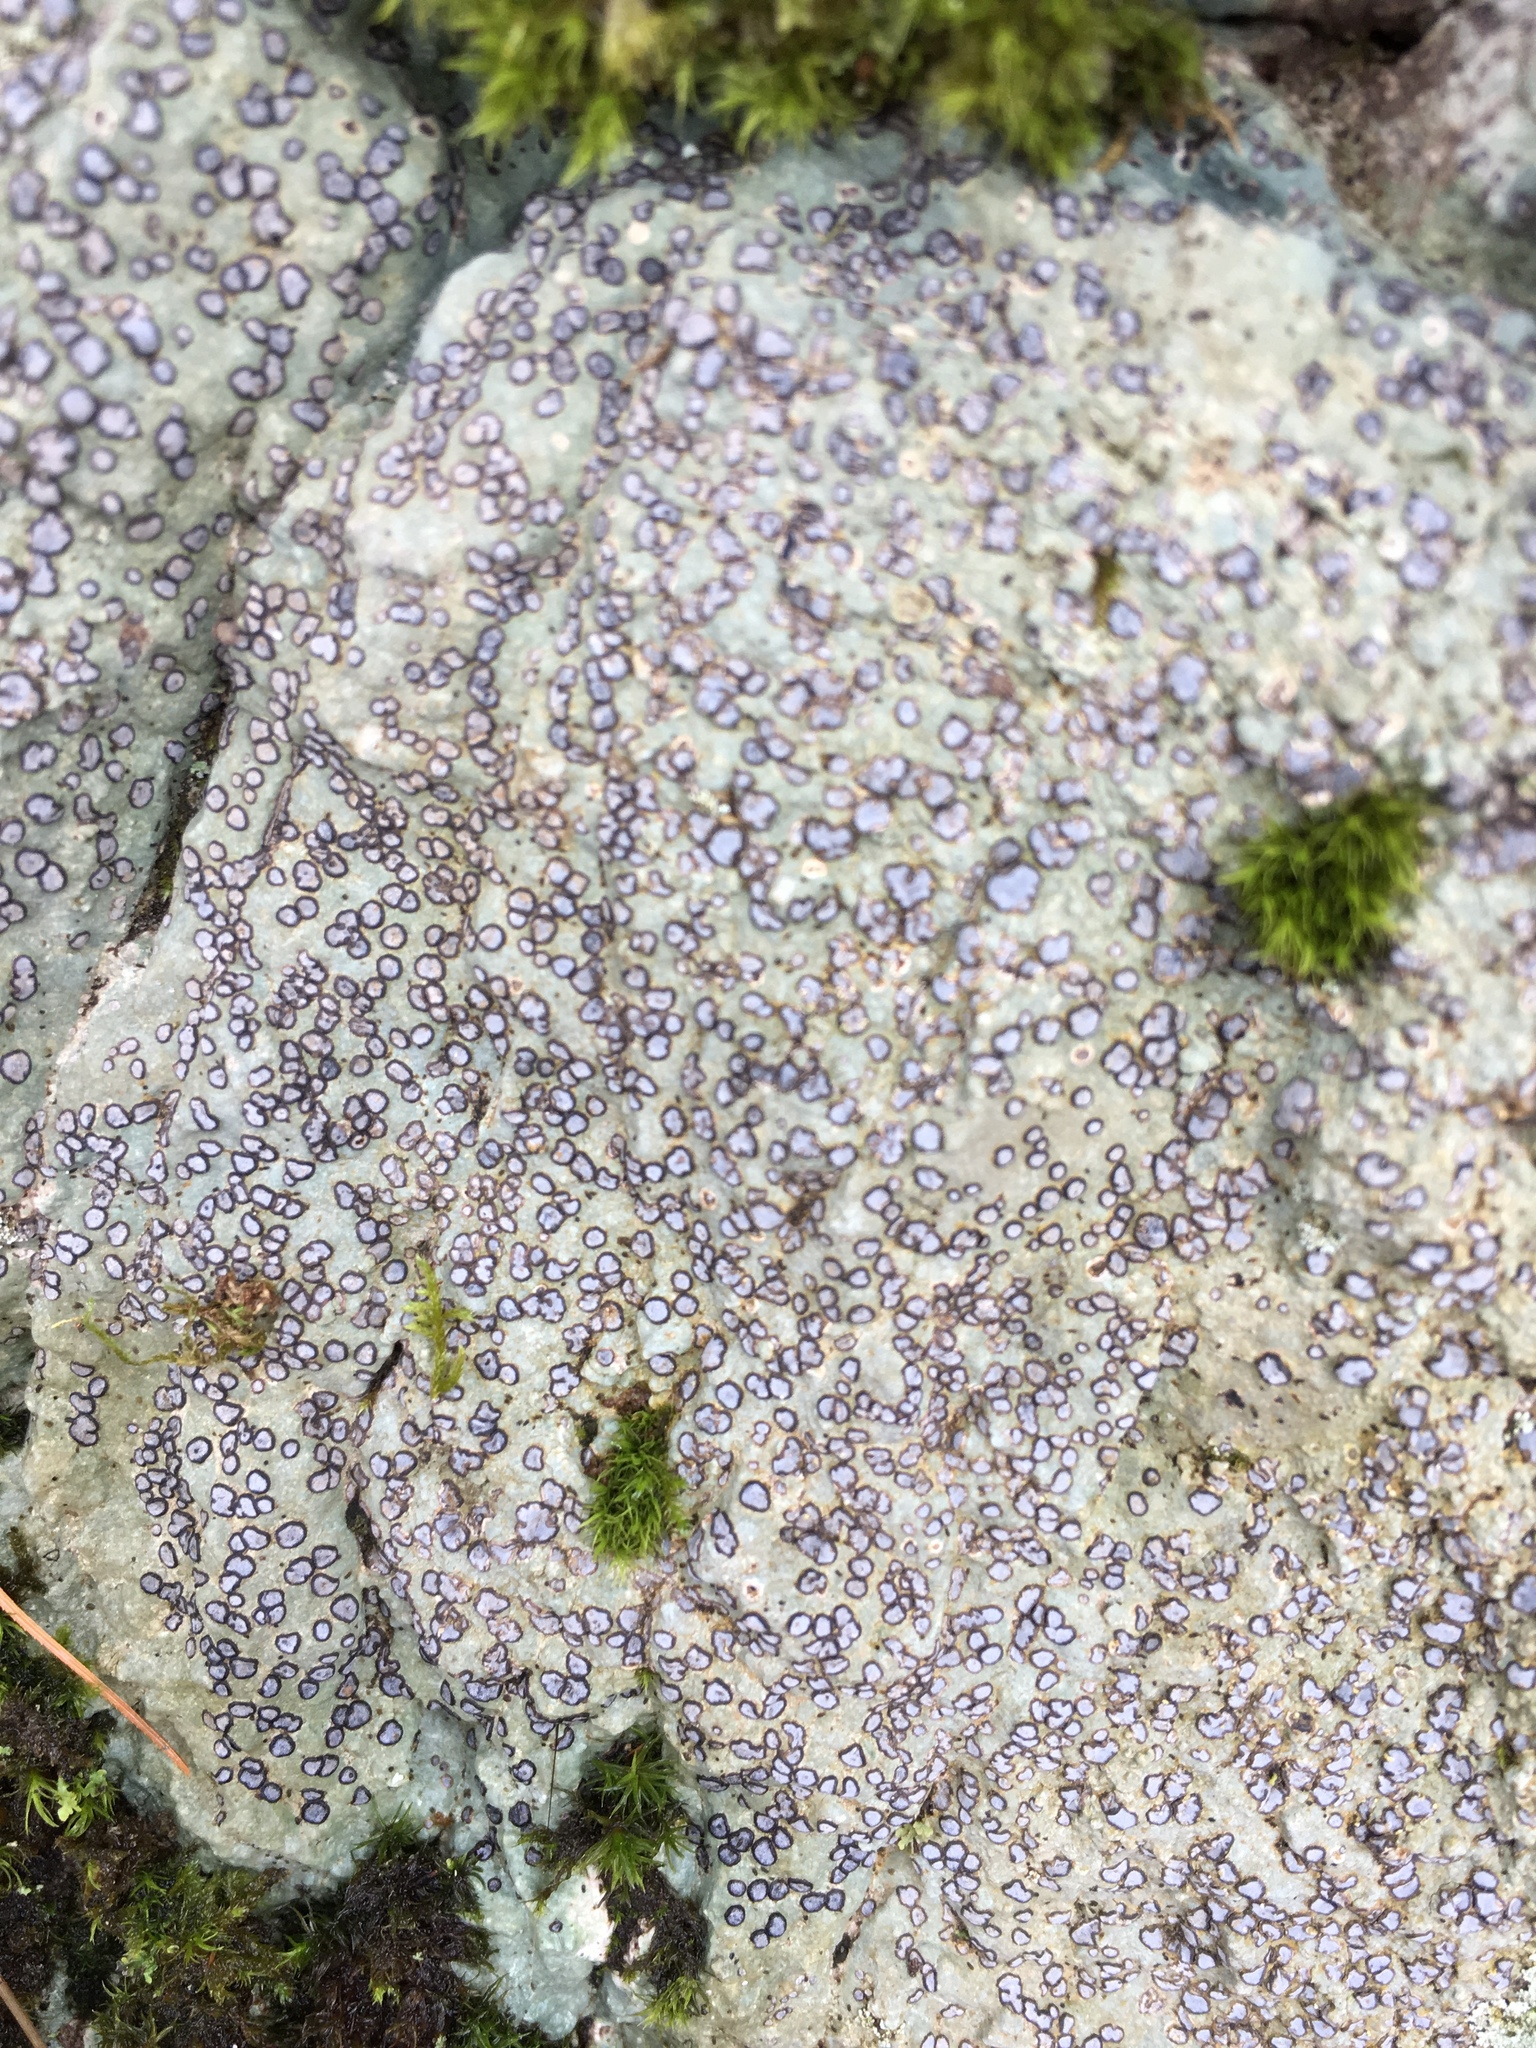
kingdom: Fungi
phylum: Ascomycota
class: Lecanoromycetes
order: Lecideales
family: Lecideaceae
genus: Porpidia
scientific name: Porpidia albocaerulescens
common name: Smokey-eyed boulder lichen
